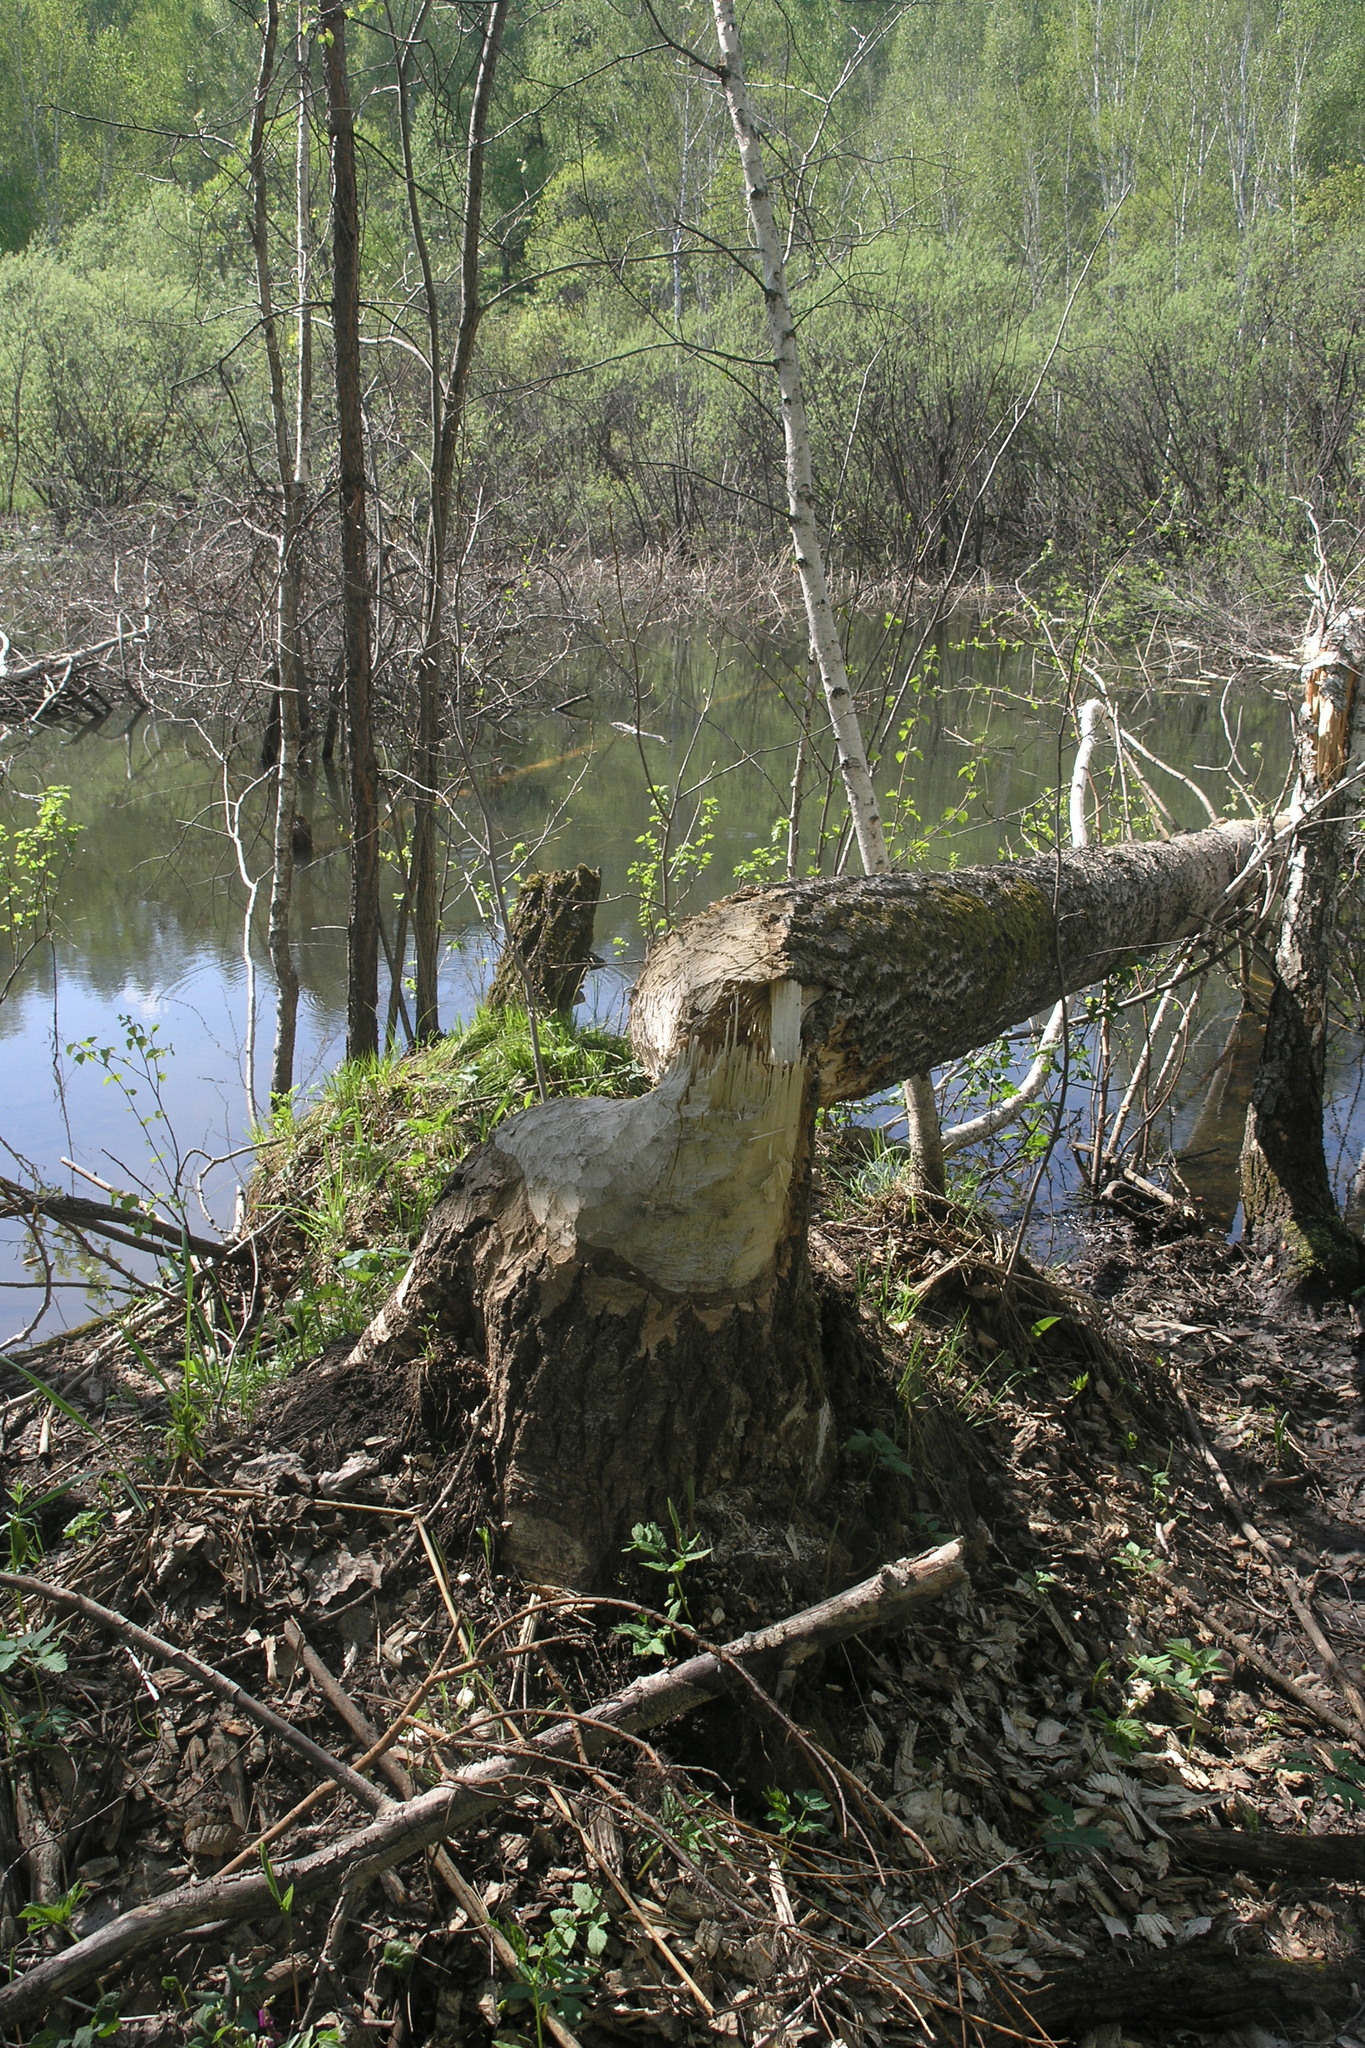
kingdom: Plantae
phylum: Tracheophyta
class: Magnoliopsida
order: Malpighiales
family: Salicaceae
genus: Populus
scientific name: Populus tremula
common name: European aspen
